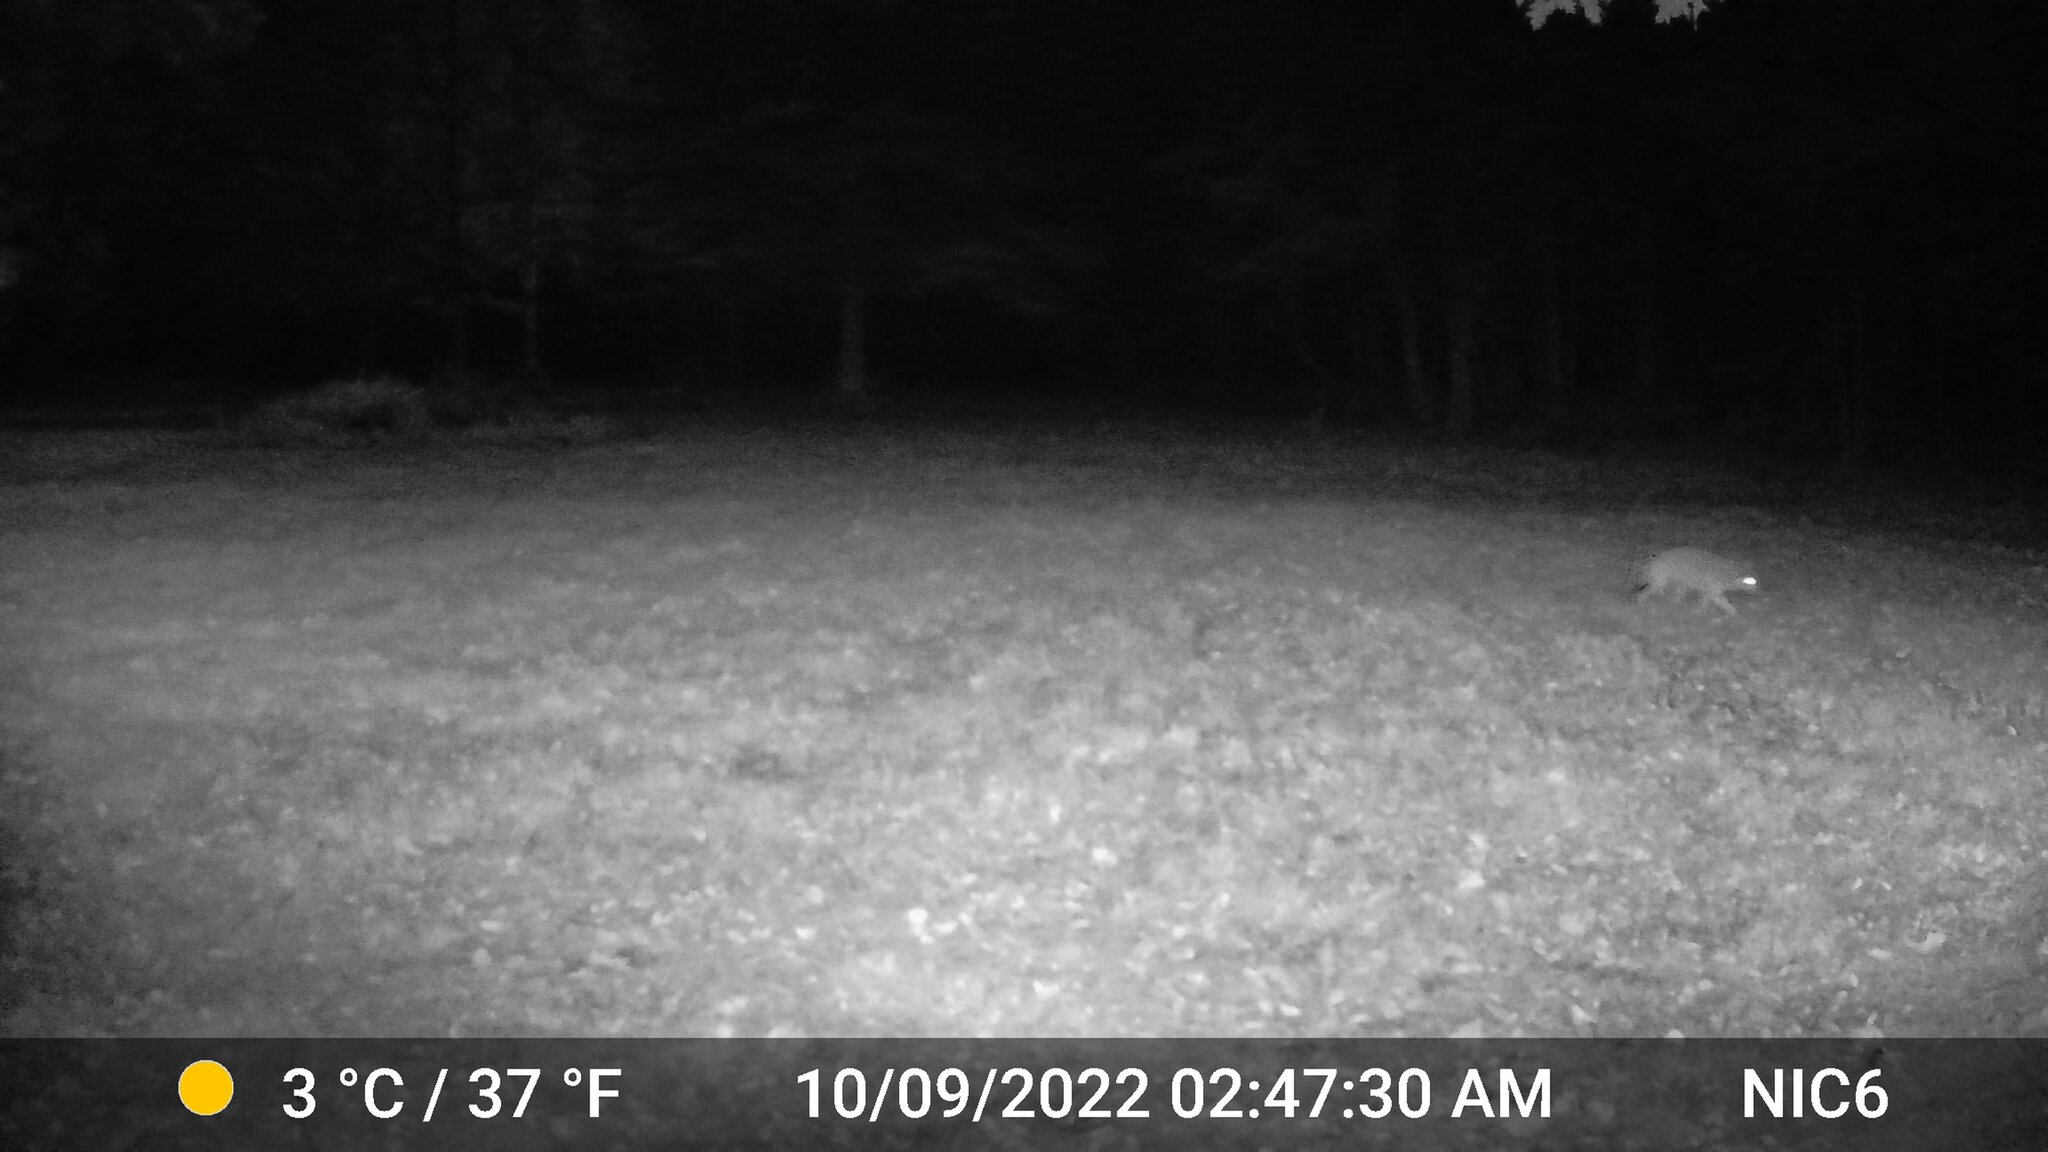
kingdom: Animalia
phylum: Chordata
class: Mammalia
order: Carnivora
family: Canidae
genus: Canis
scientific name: Canis latrans
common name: Coyote
